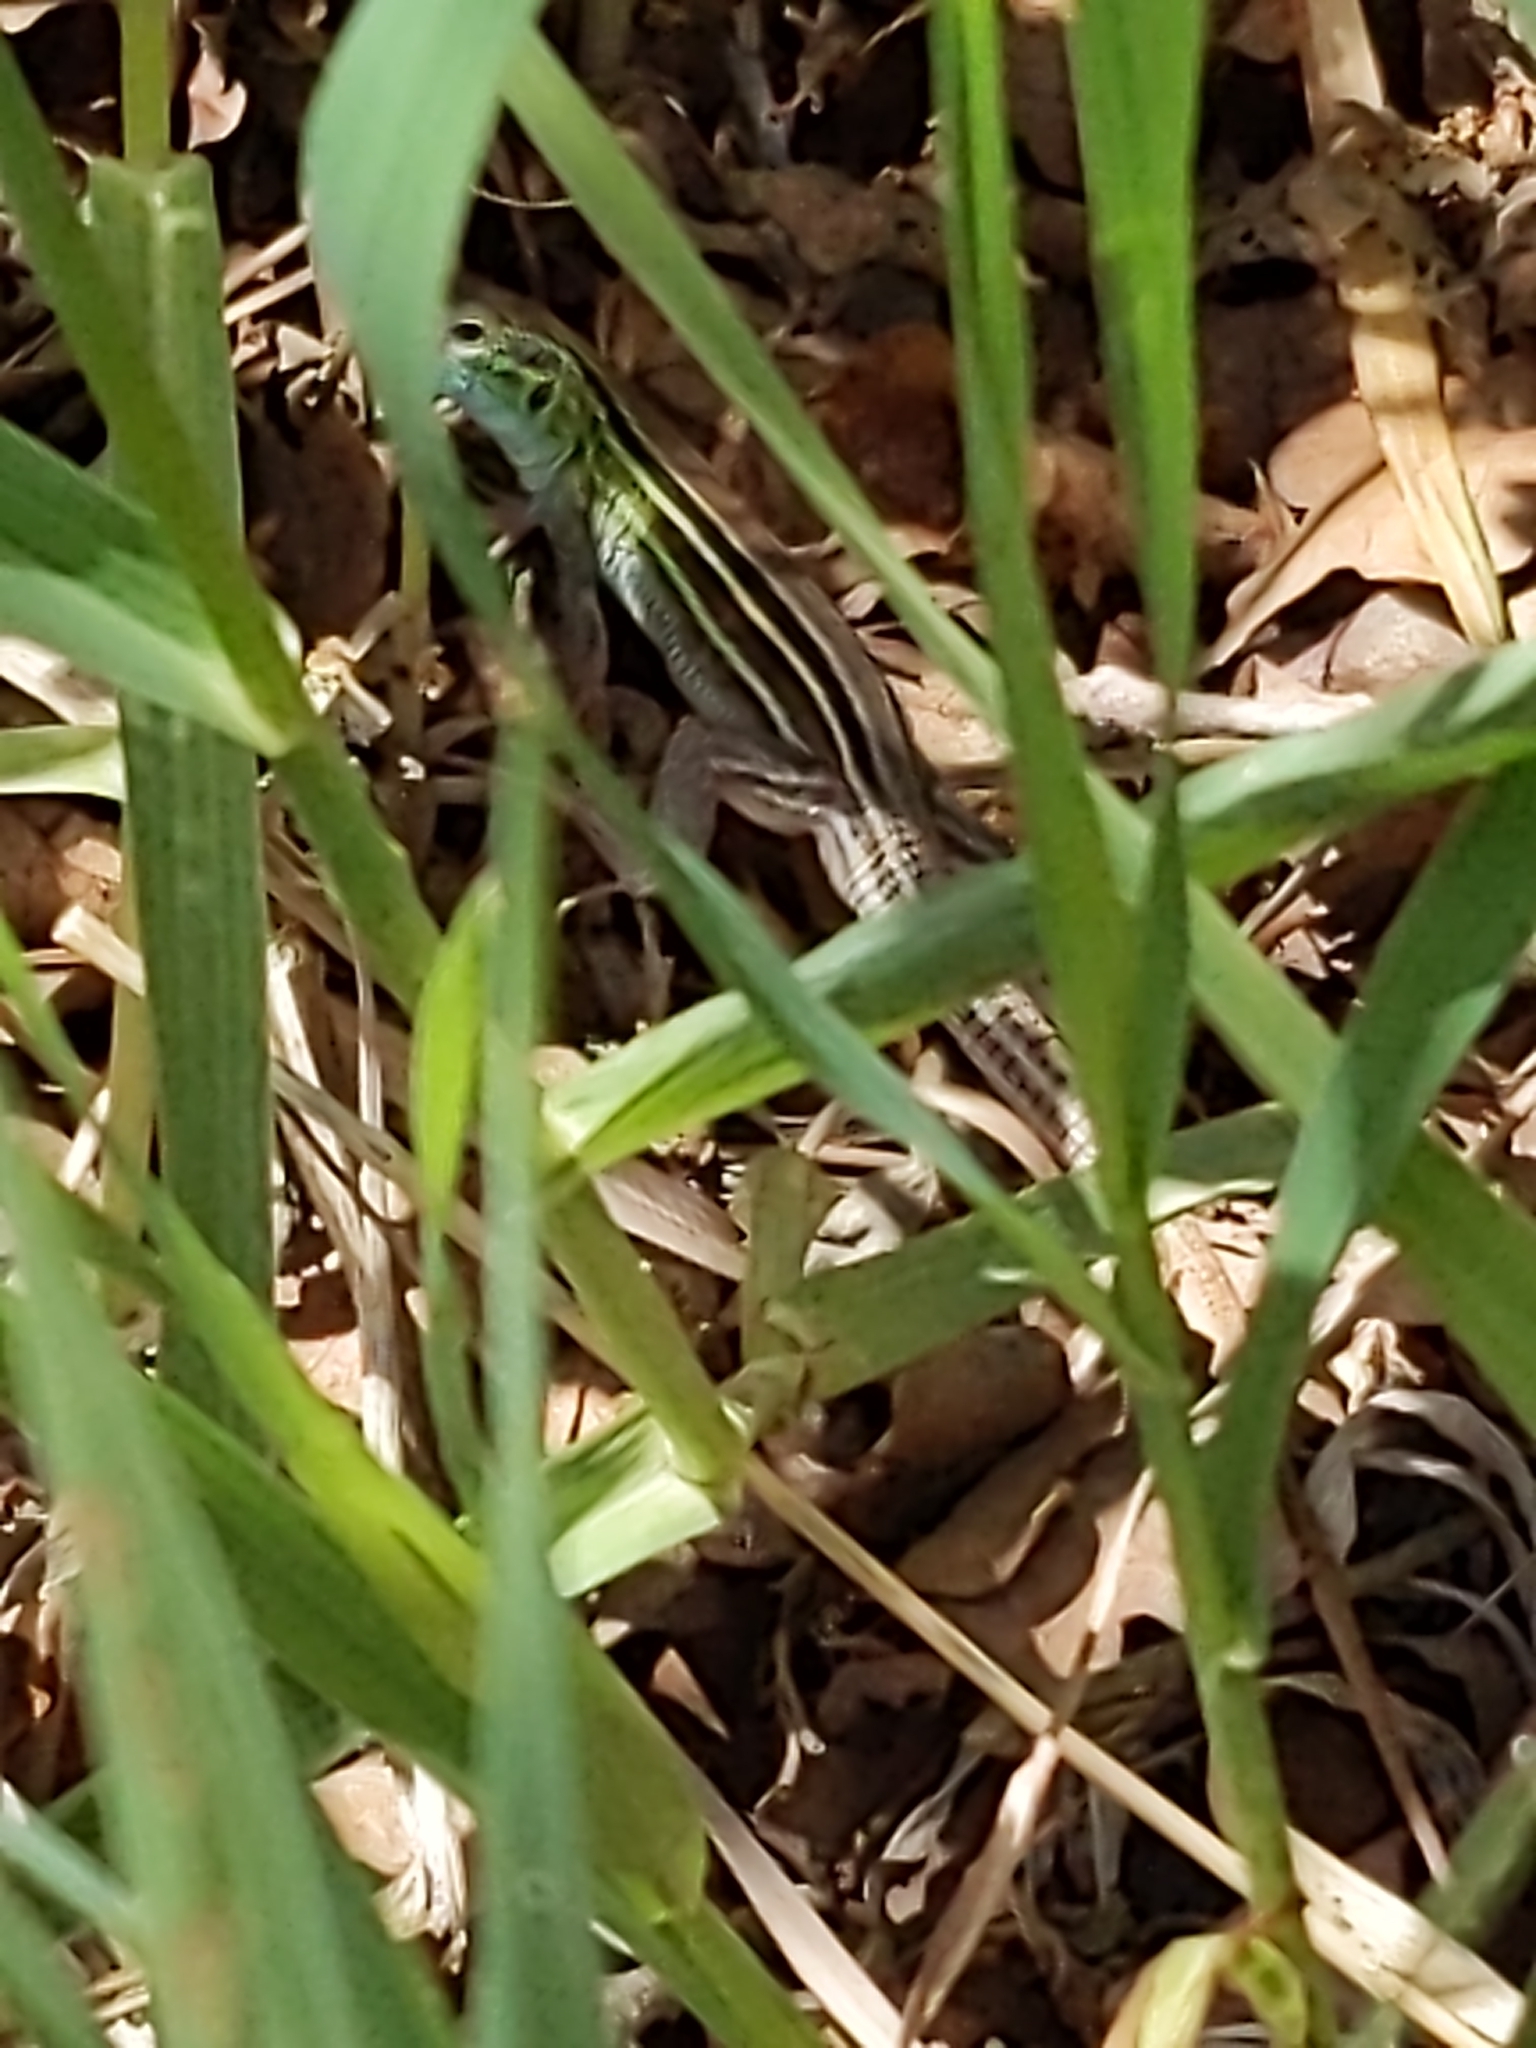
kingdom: Animalia
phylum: Chordata
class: Squamata
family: Teiidae
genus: Aspidoscelis
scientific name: Aspidoscelis sexlineatus
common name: Six-lined racerunner
